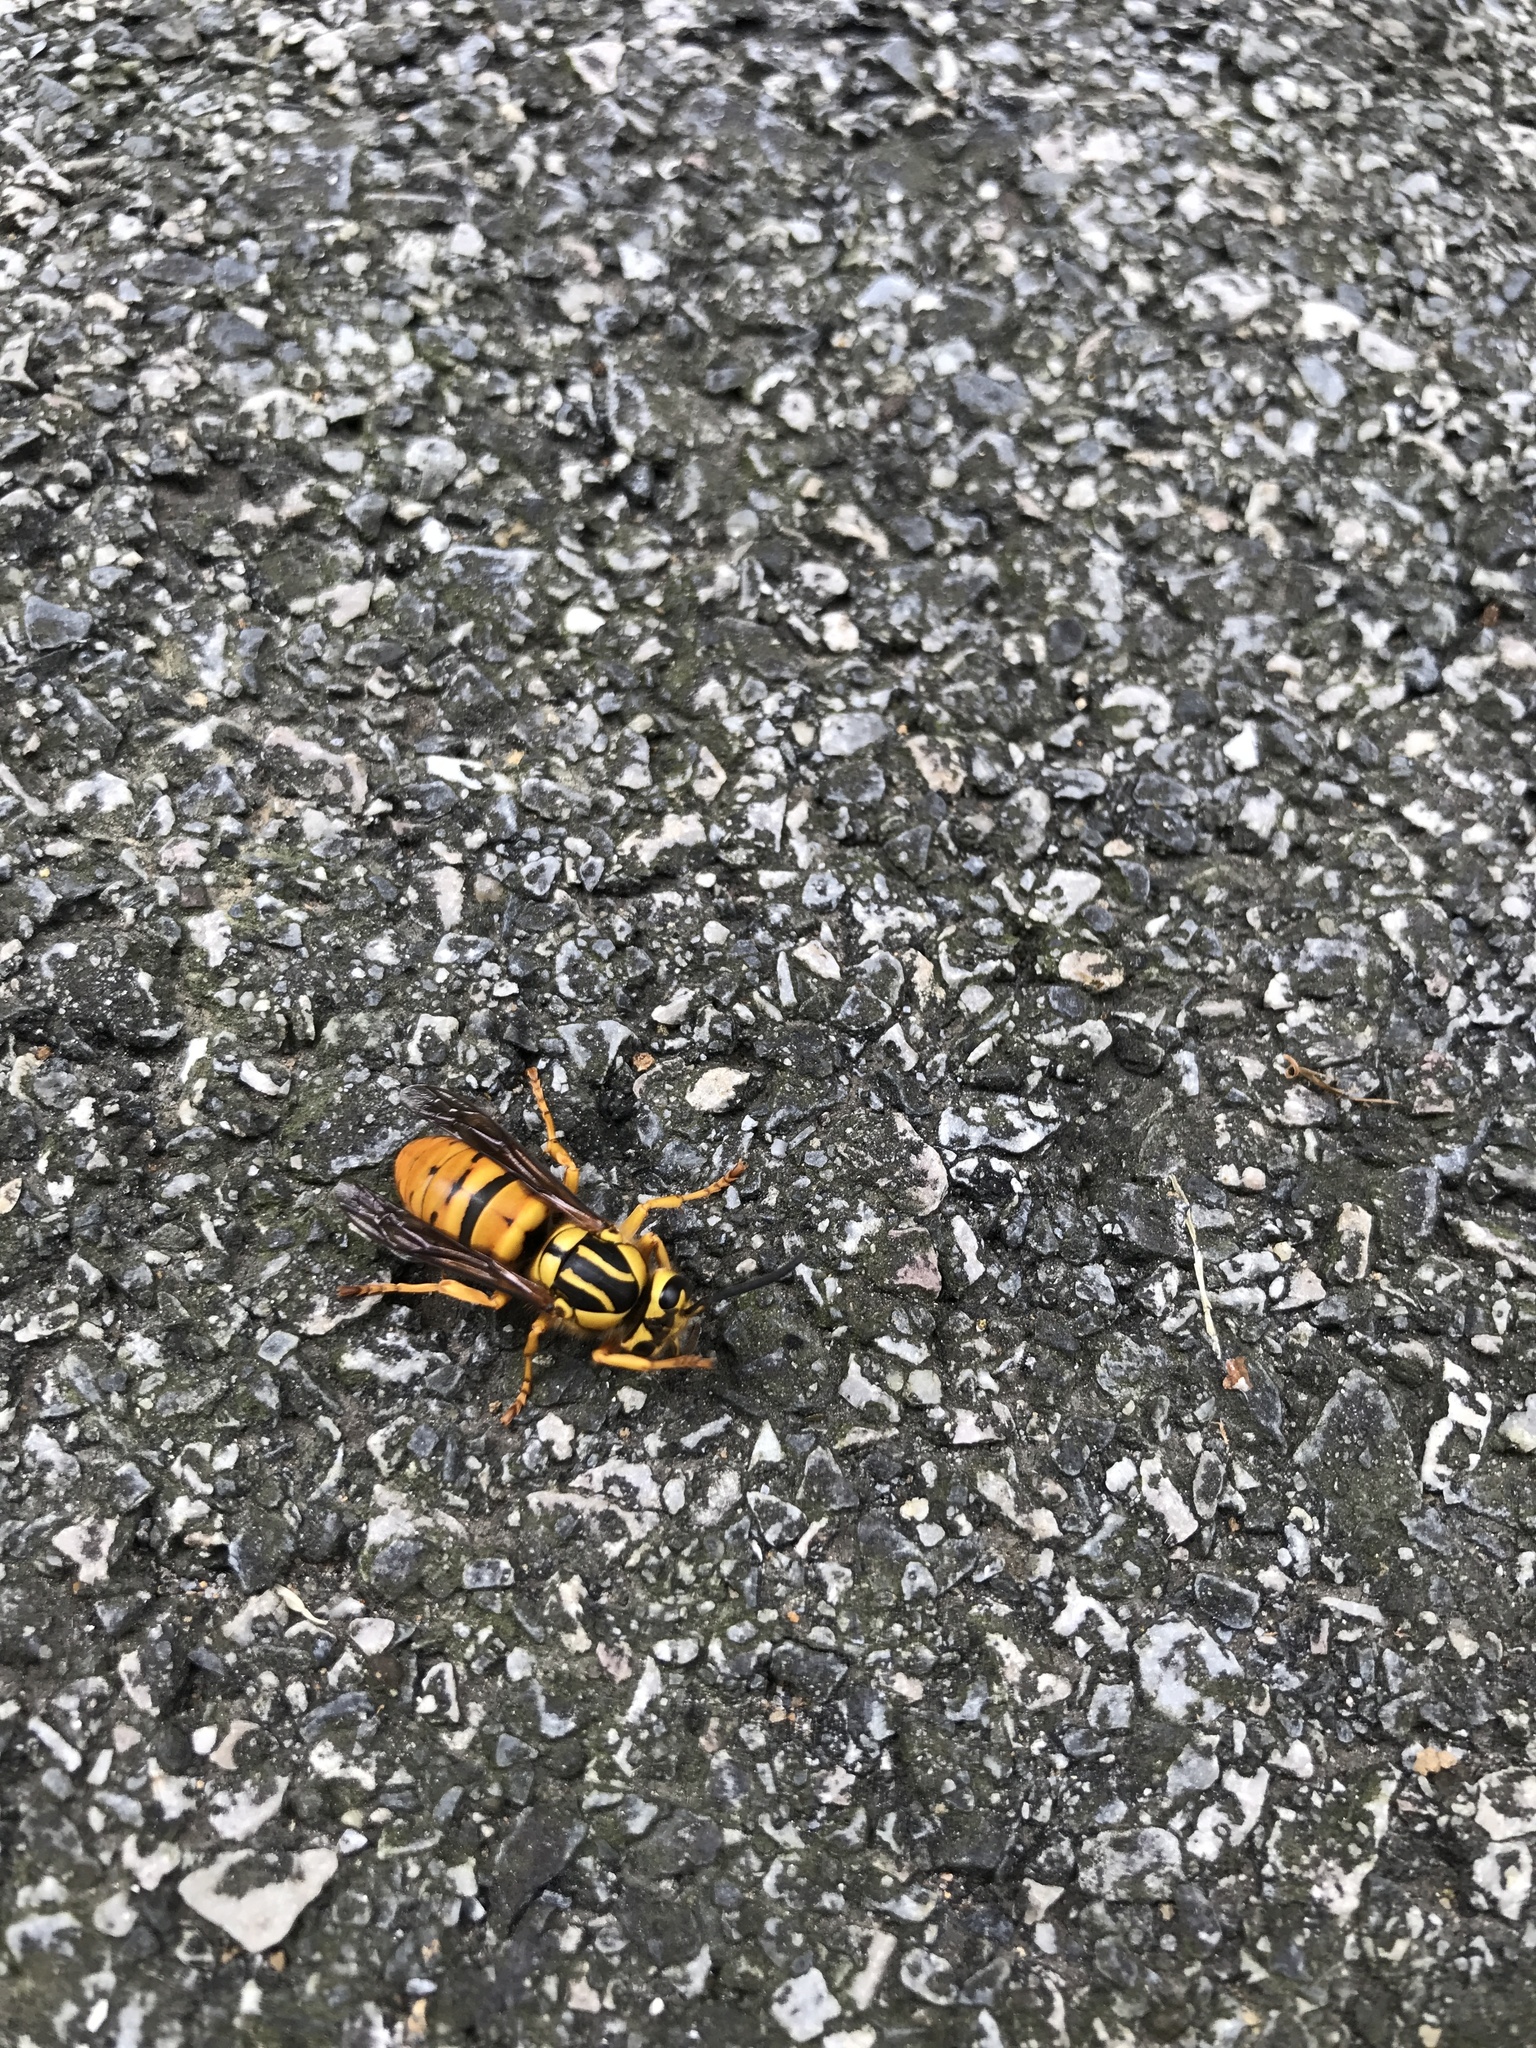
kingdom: Animalia
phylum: Arthropoda
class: Insecta
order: Hymenoptera
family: Vespidae
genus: Vespula
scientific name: Vespula squamosa
